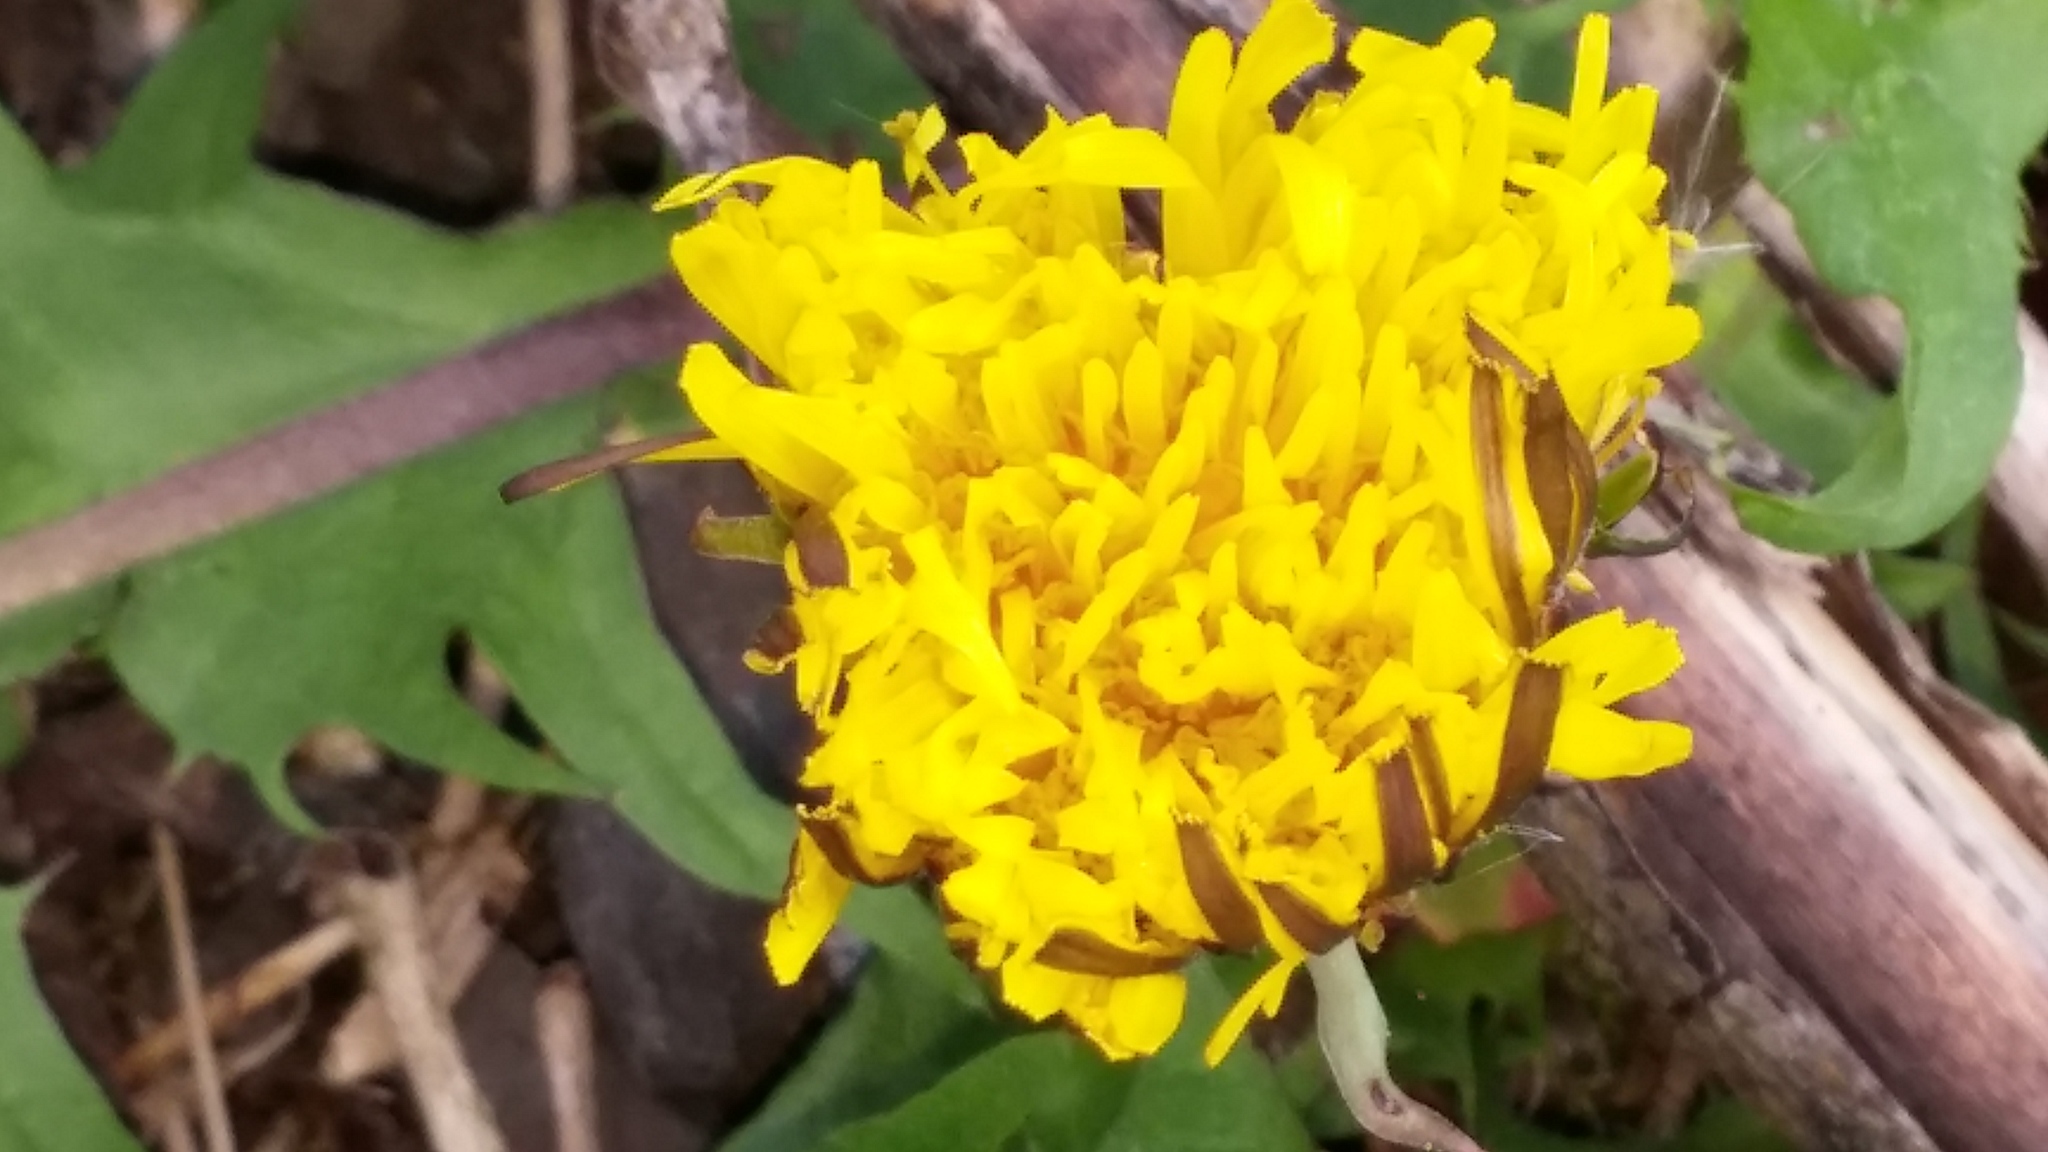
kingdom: Plantae
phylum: Tracheophyta
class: Magnoliopsida
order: Asterales
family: Asteraceae
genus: Taraxacum
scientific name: Taraxacum officinale
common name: Common dandelion
